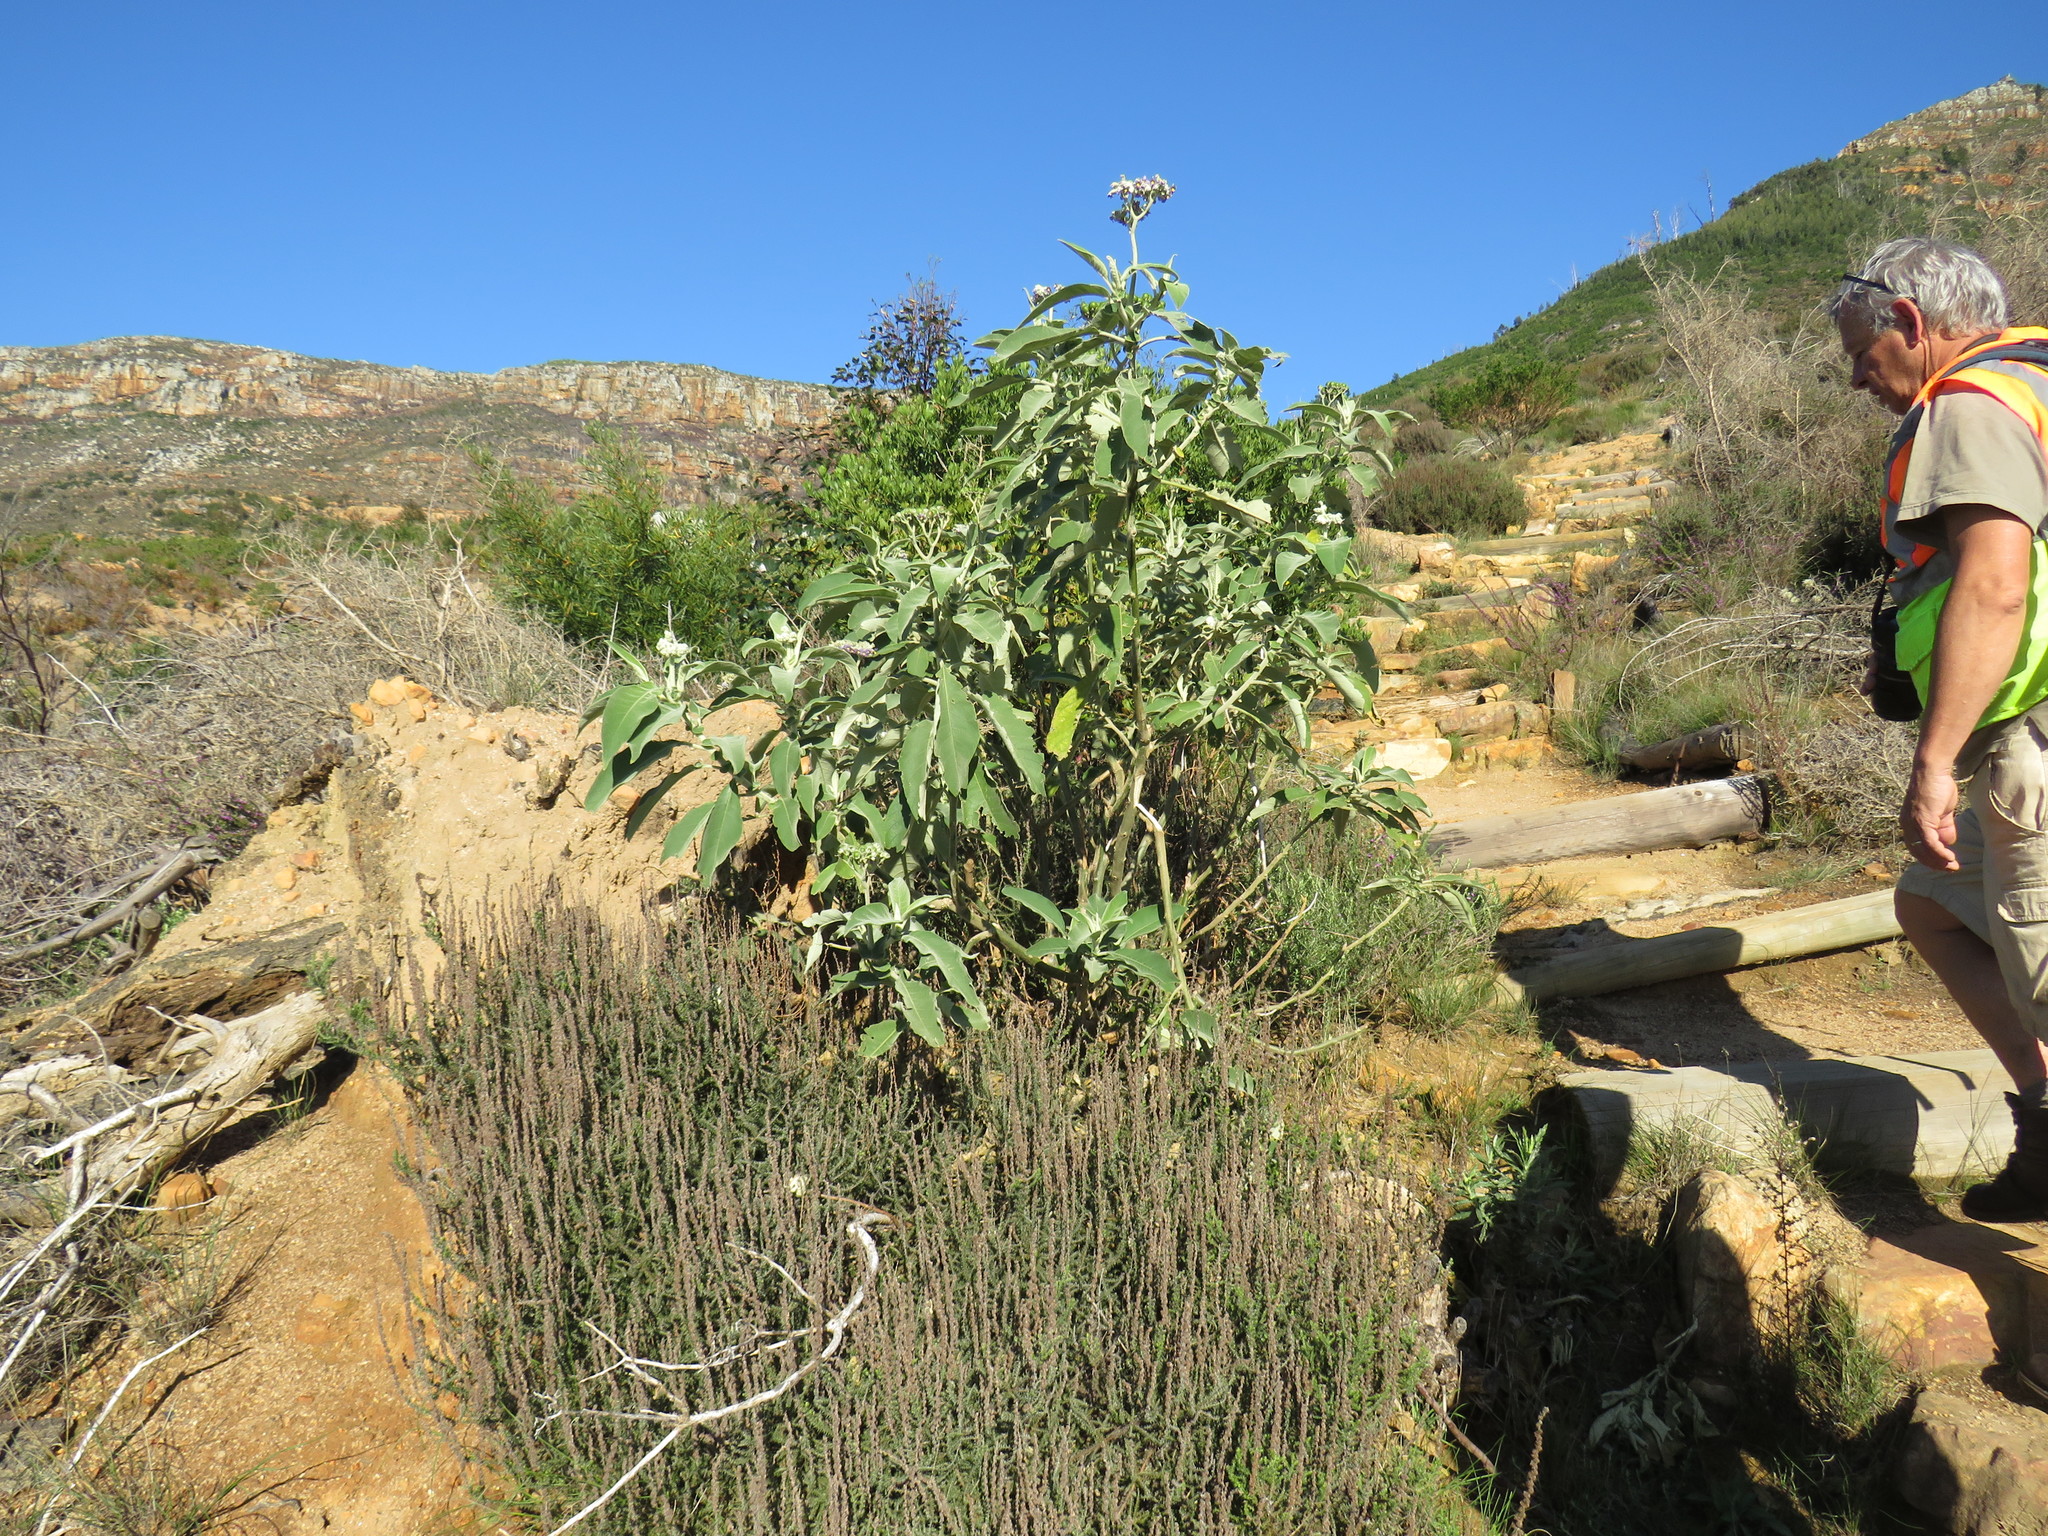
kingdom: Plantae
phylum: Tracheophyta
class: Magnoliopsida
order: Solanales
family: Solanaceae
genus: Solanum
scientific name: Solanum mauritianum
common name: Earleaf nightshade
